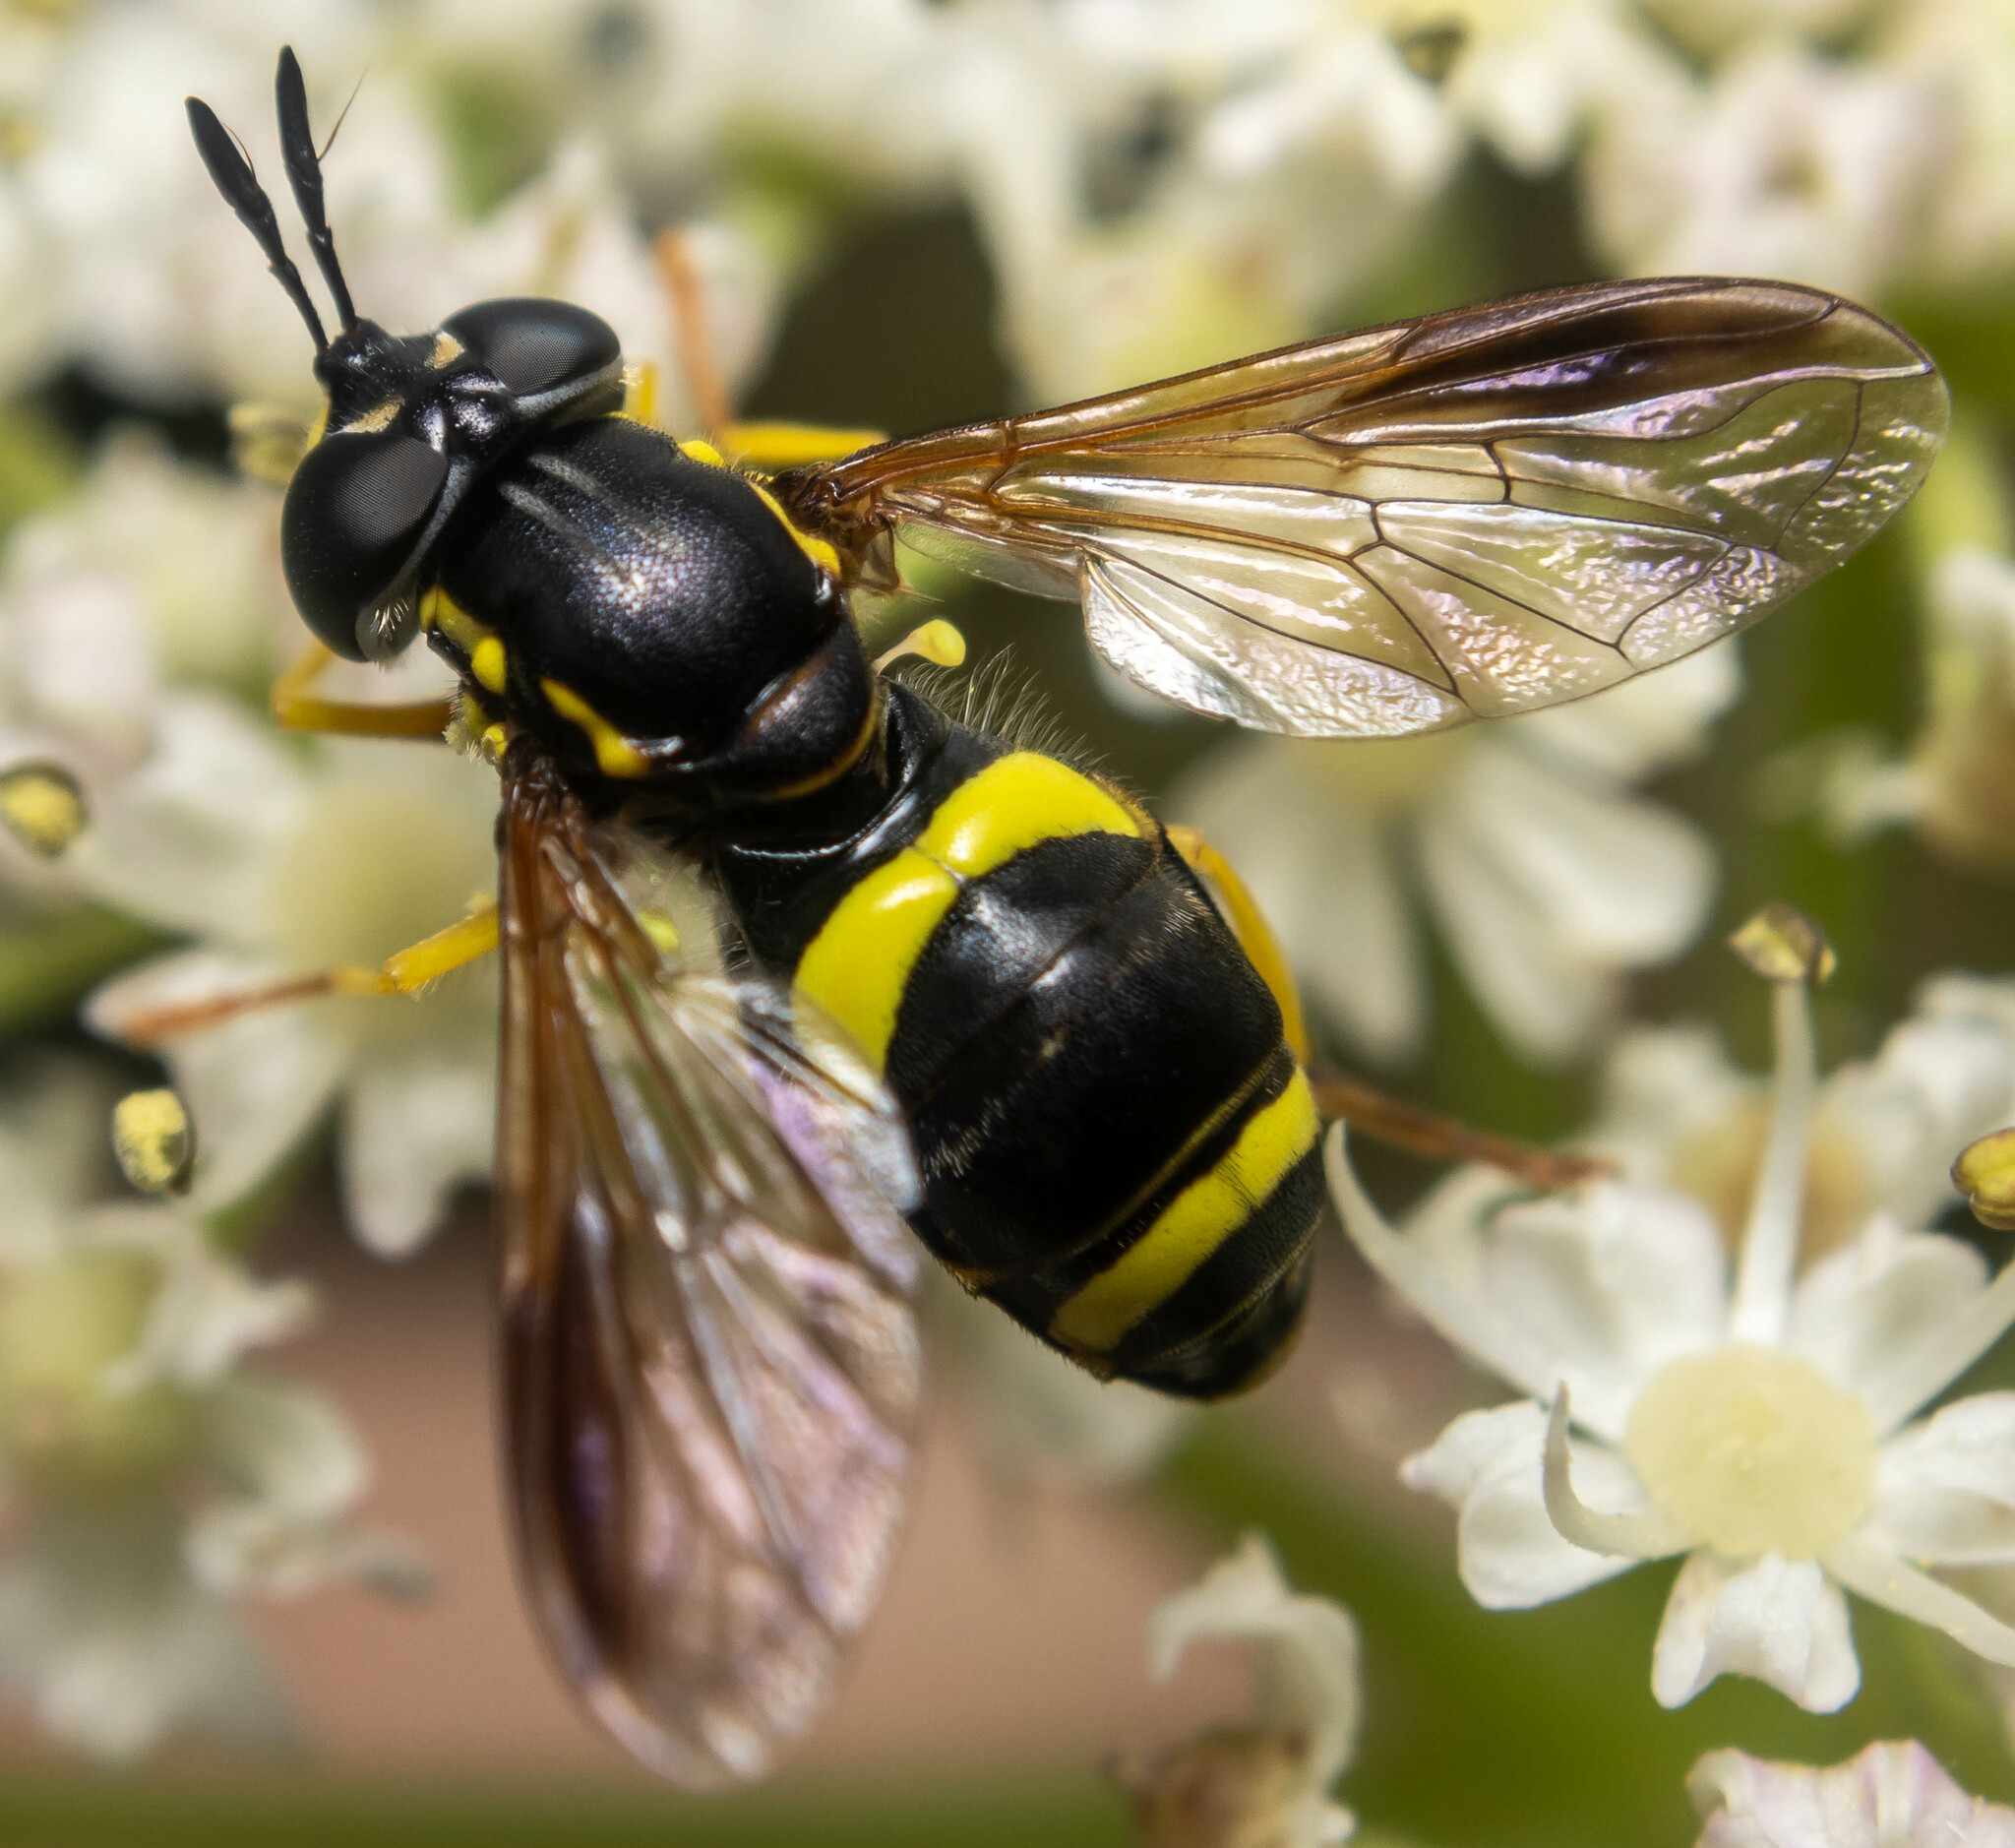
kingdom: Animalia
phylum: Arthropoda
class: Insecta
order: Diptera
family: Syrphidae
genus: Chrysotoxum
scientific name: Chrysotoxum bicincta
